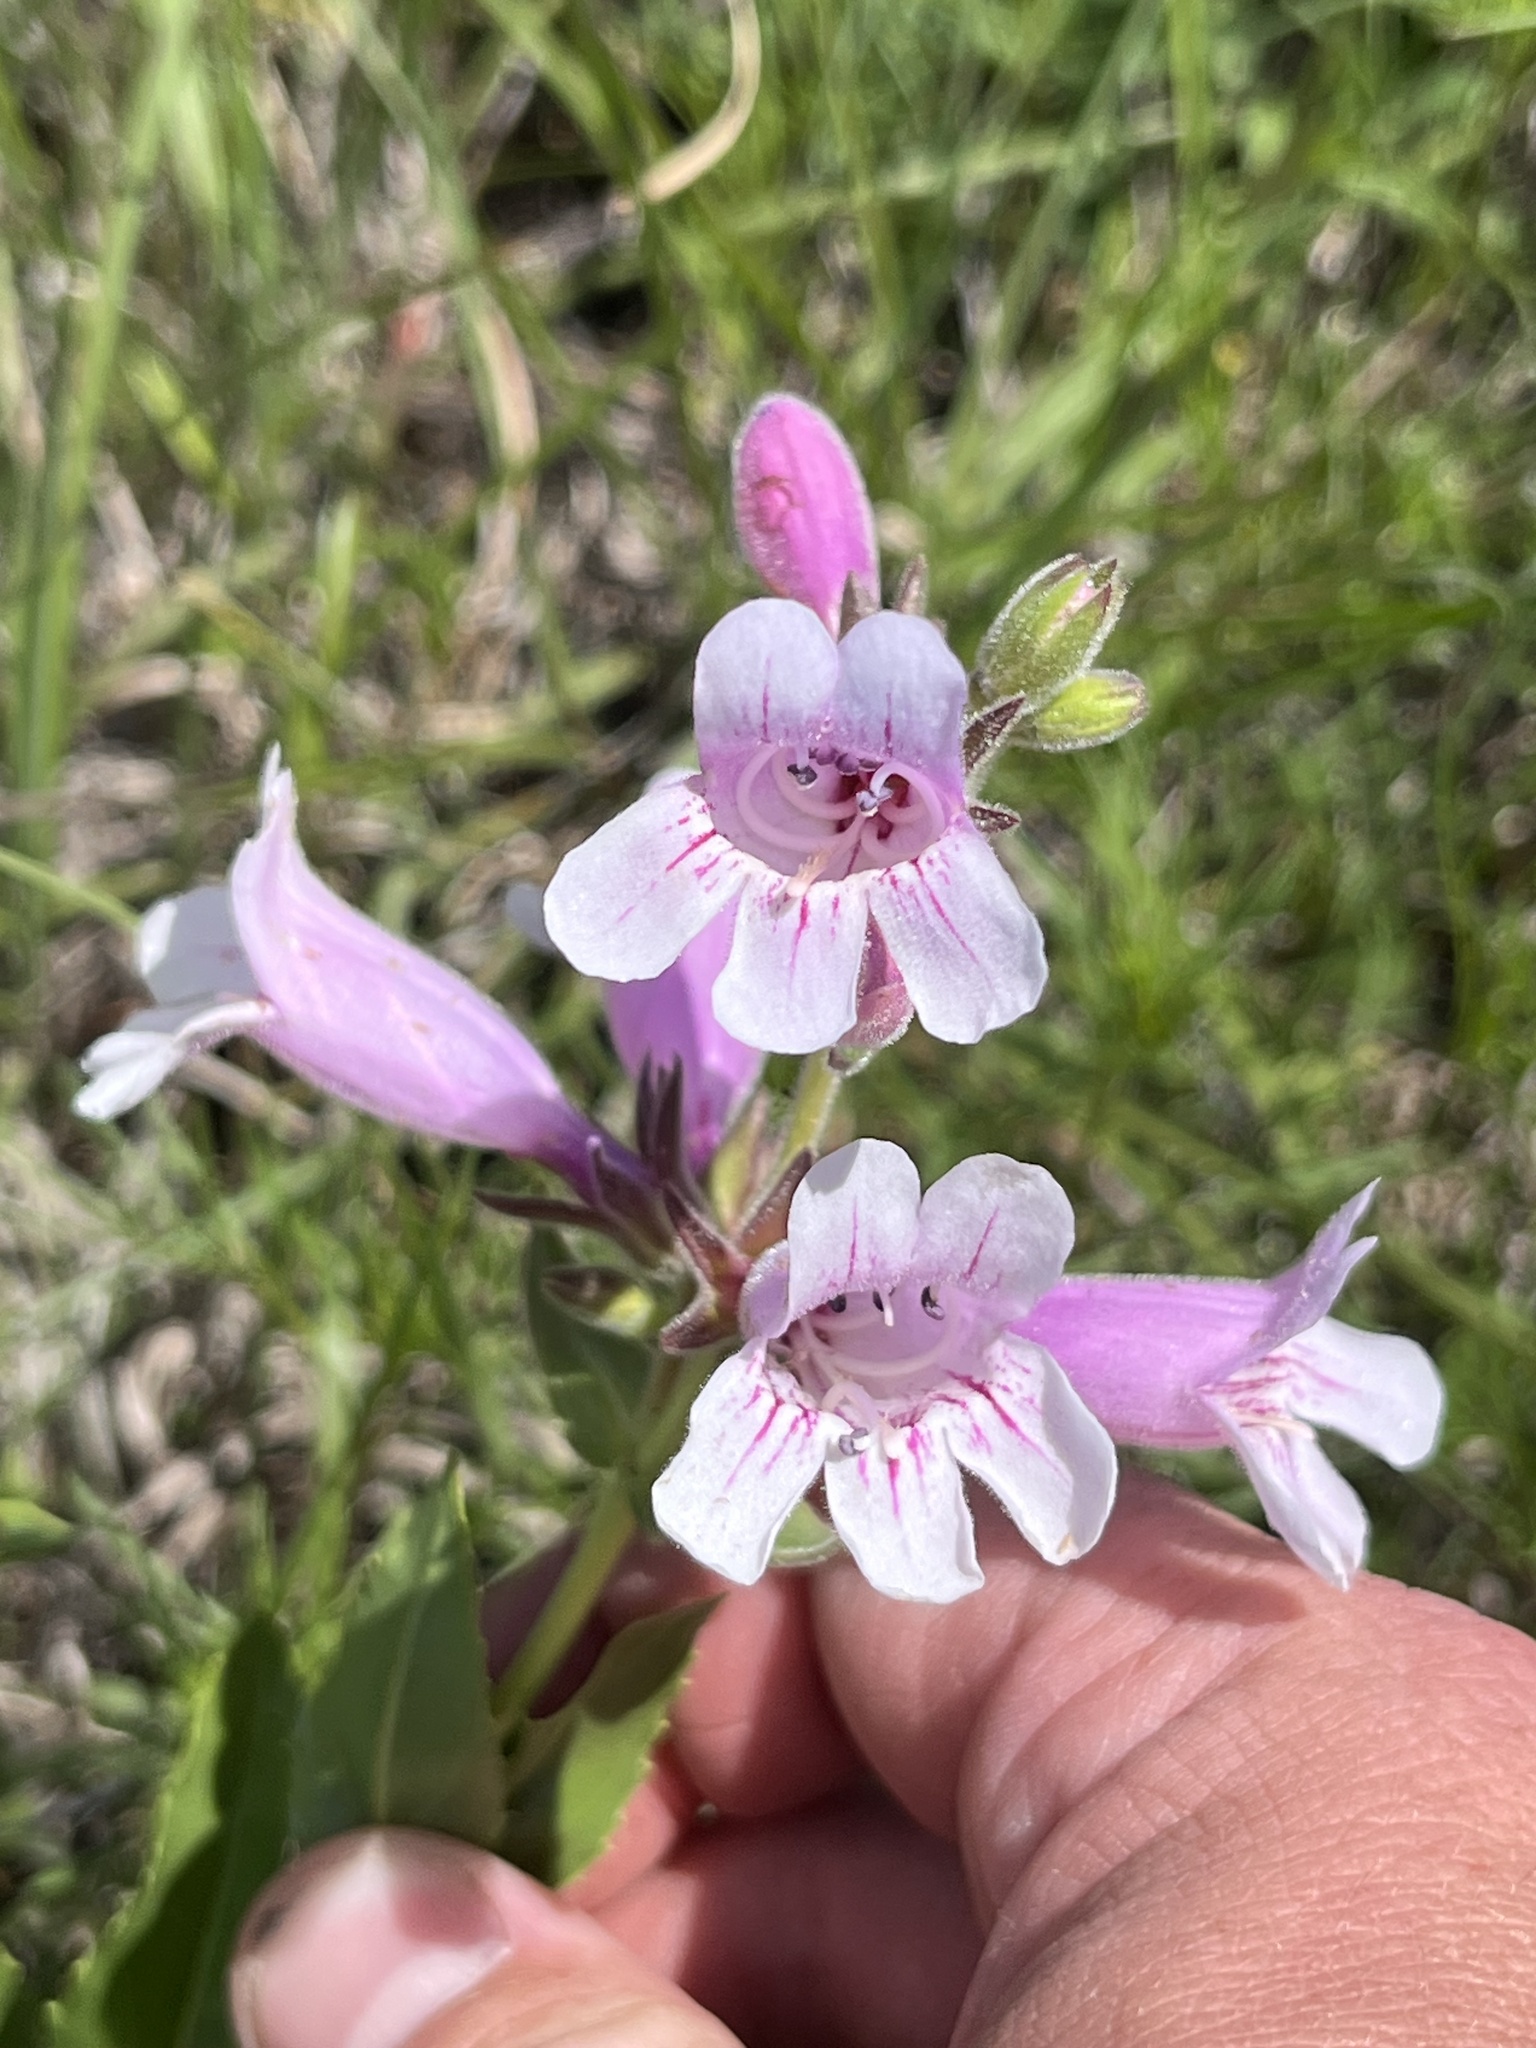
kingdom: Plantae
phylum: Tracheophyta
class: Magnoliopsida
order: Lamiales
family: Plantaginaceae
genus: Penstemon
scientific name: Penstemon cobaea
